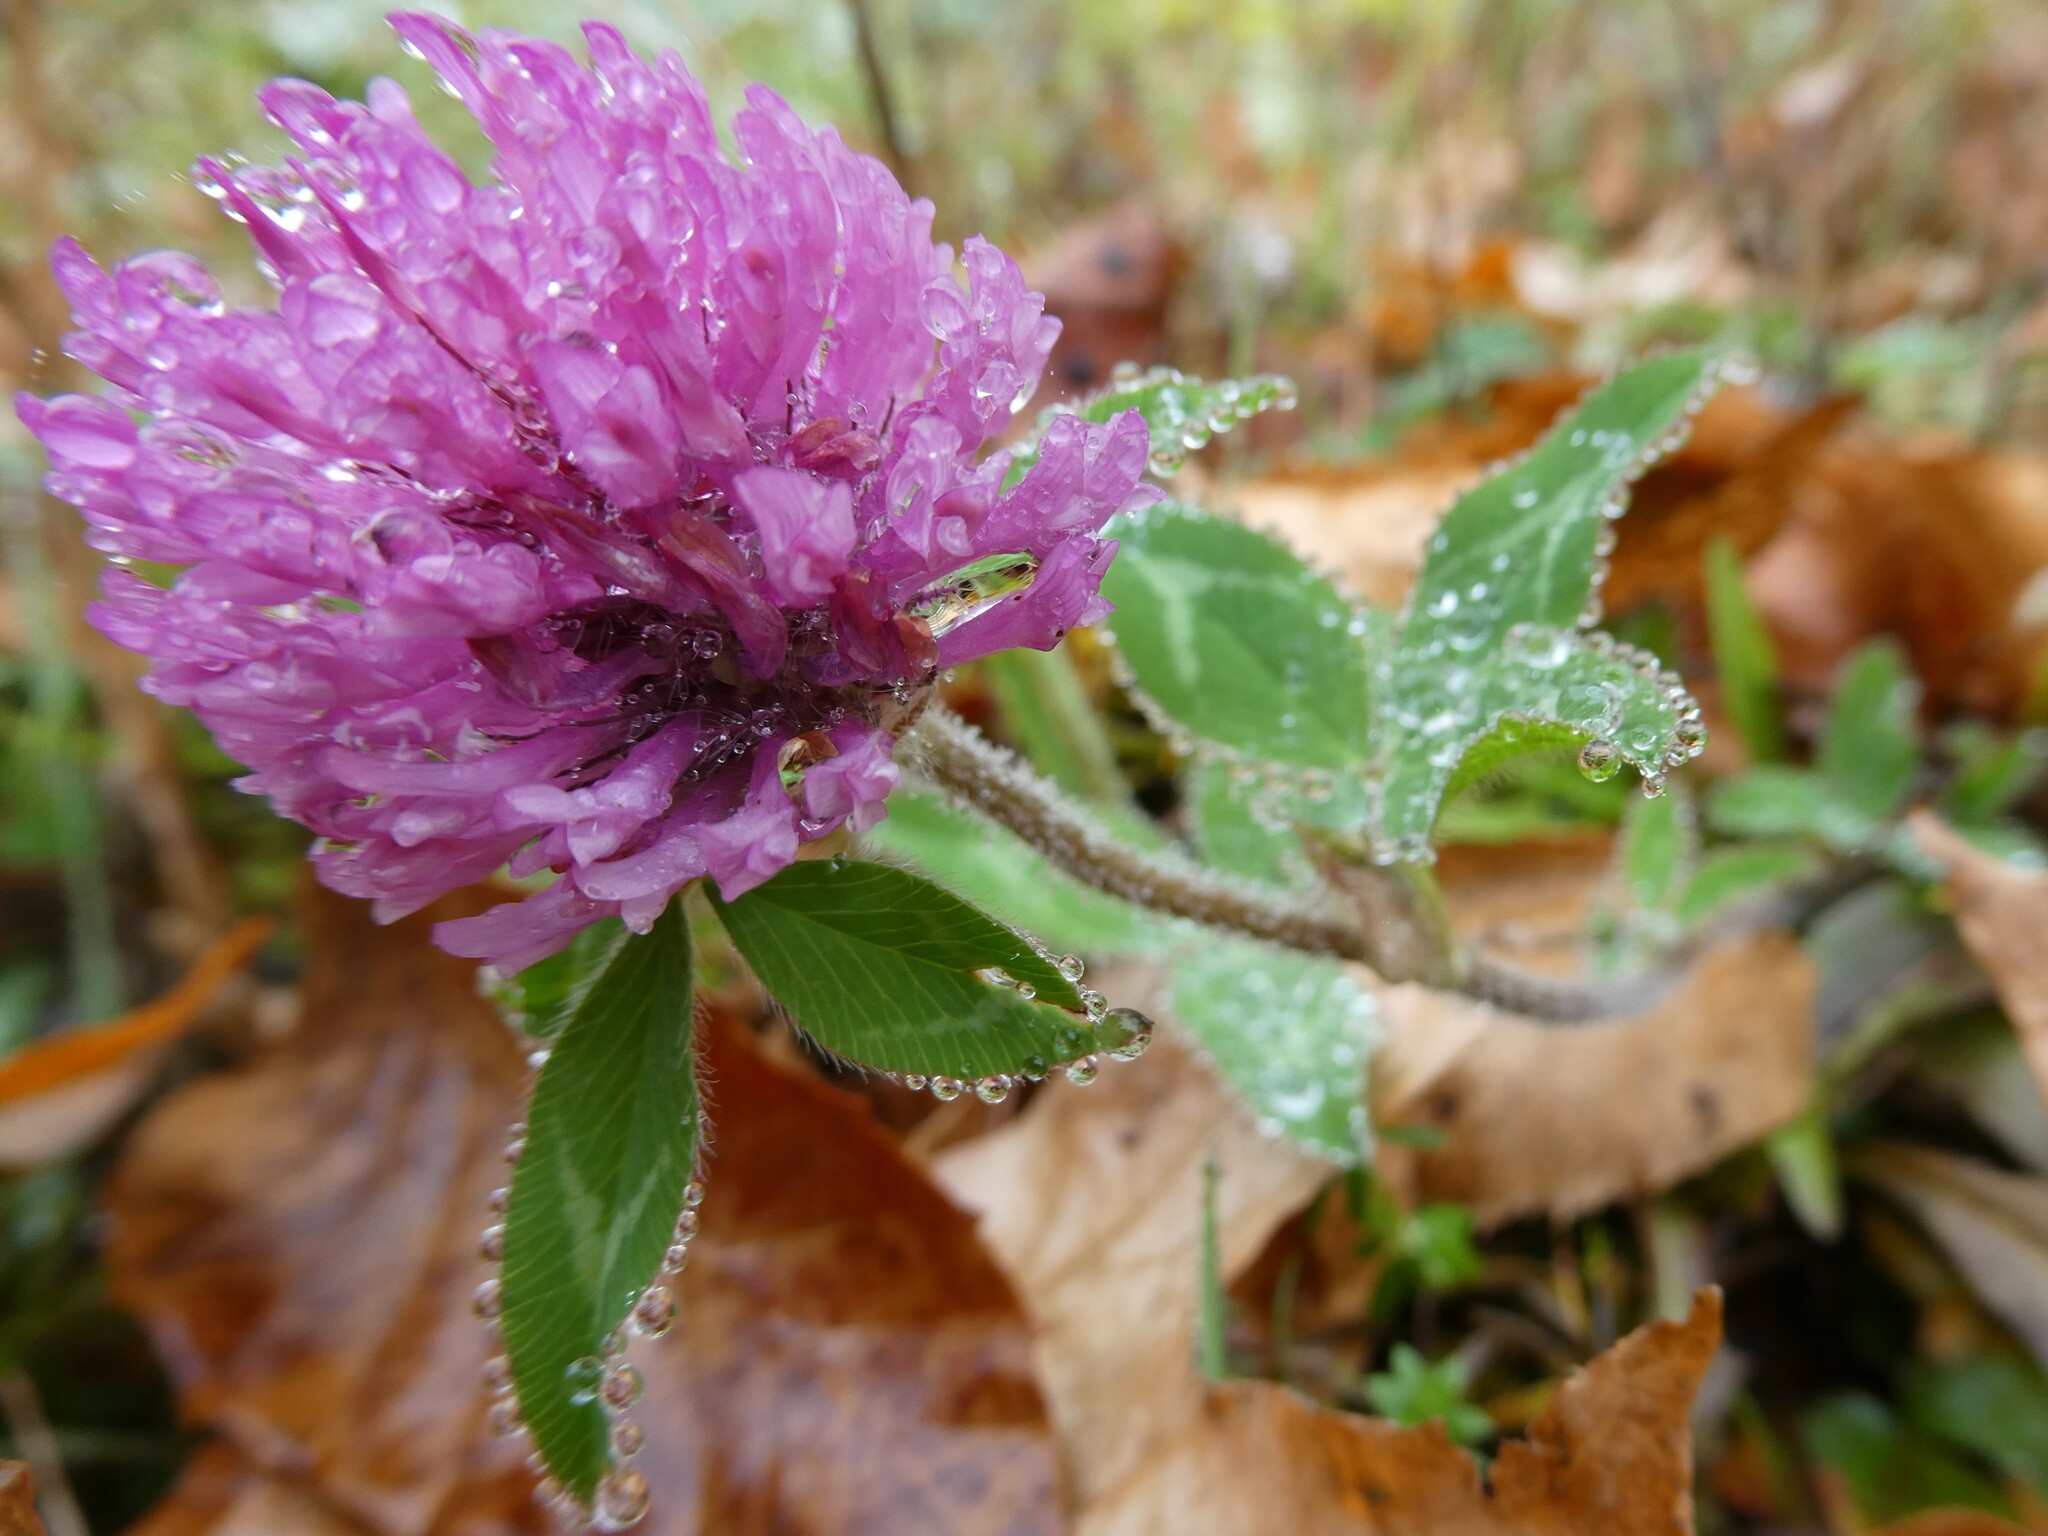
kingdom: Plantae
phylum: Tracheophyta
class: Magnoliopsida
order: Fabales
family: Fabaceae
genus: Trifolium
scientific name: Trifolium pratense
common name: Red clover
